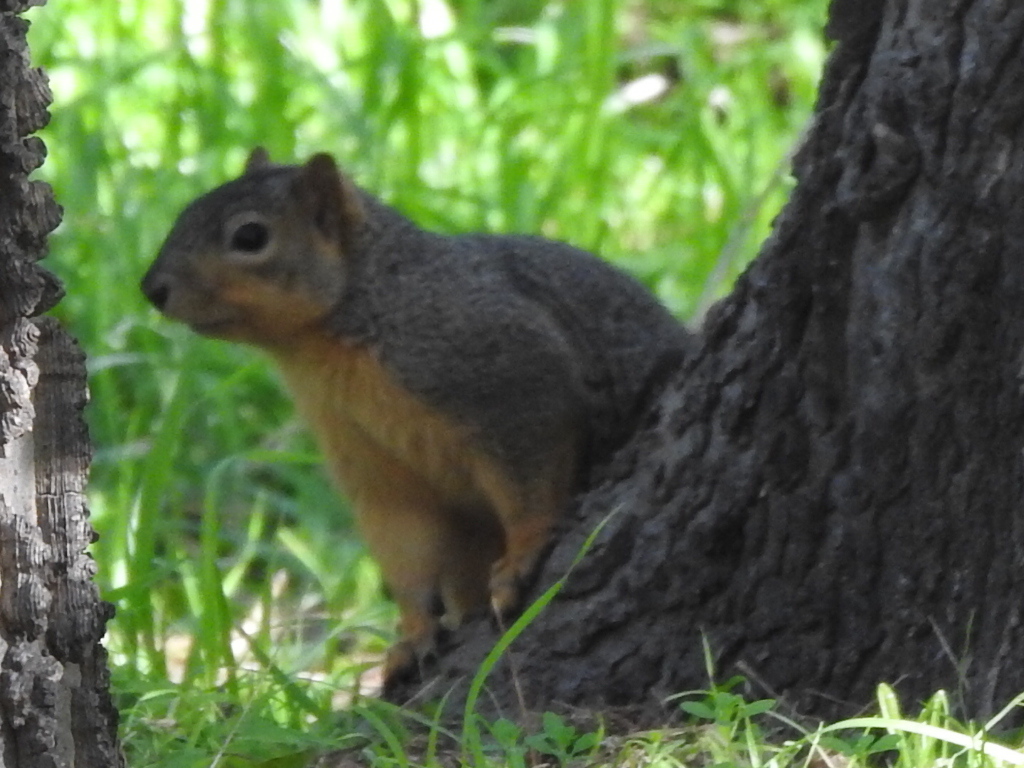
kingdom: Animalia
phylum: Chordata
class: Mammalia
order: Rodentia
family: Sciuridae
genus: Sciurus
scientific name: Sciurus niger
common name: Fox squirrel
